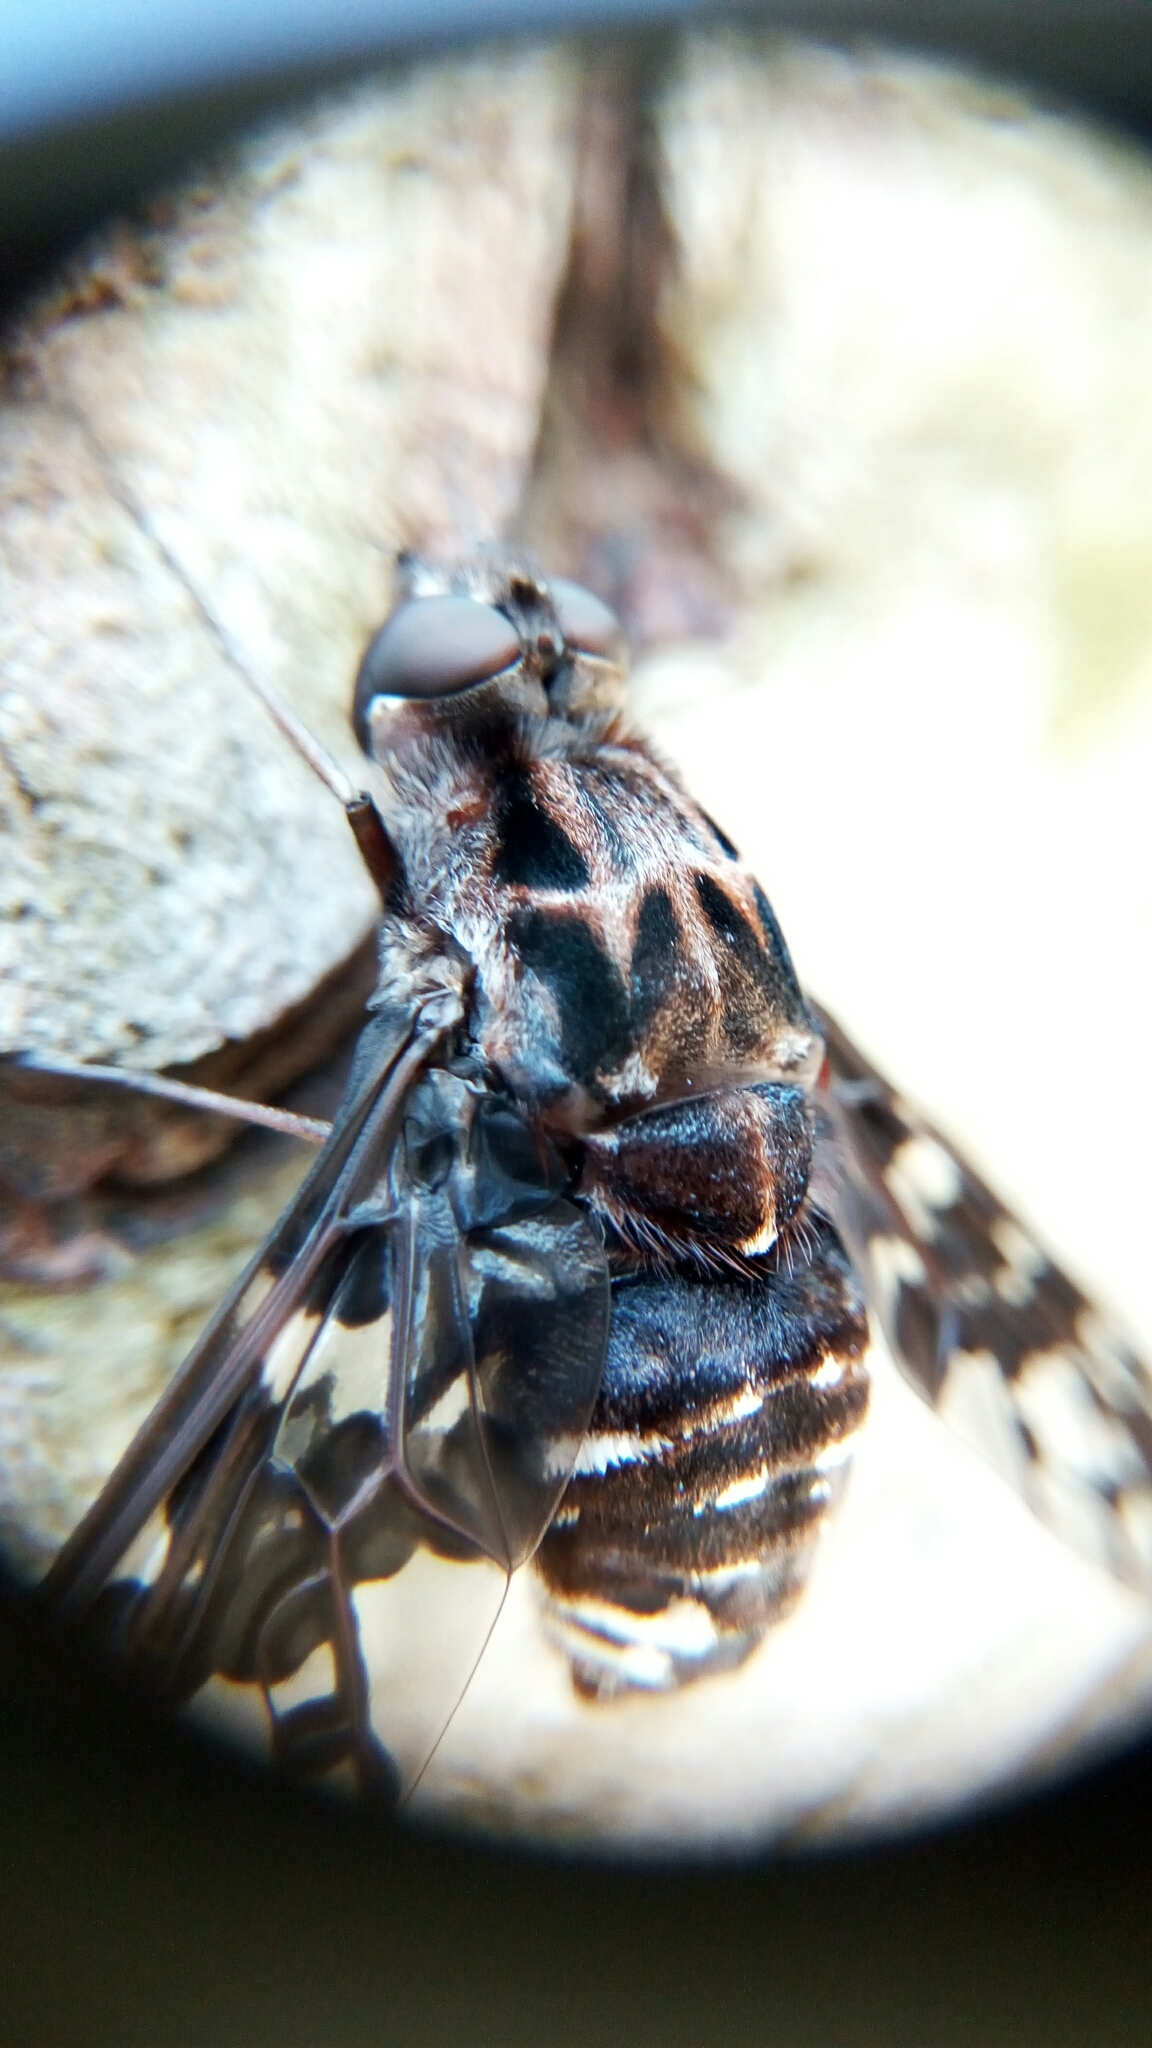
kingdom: Animalia
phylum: Arthropoda
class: Insecta
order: Diptera
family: Bombyliidae
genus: Xenox
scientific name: Xenox tigrinus
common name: Tiger bee fly
